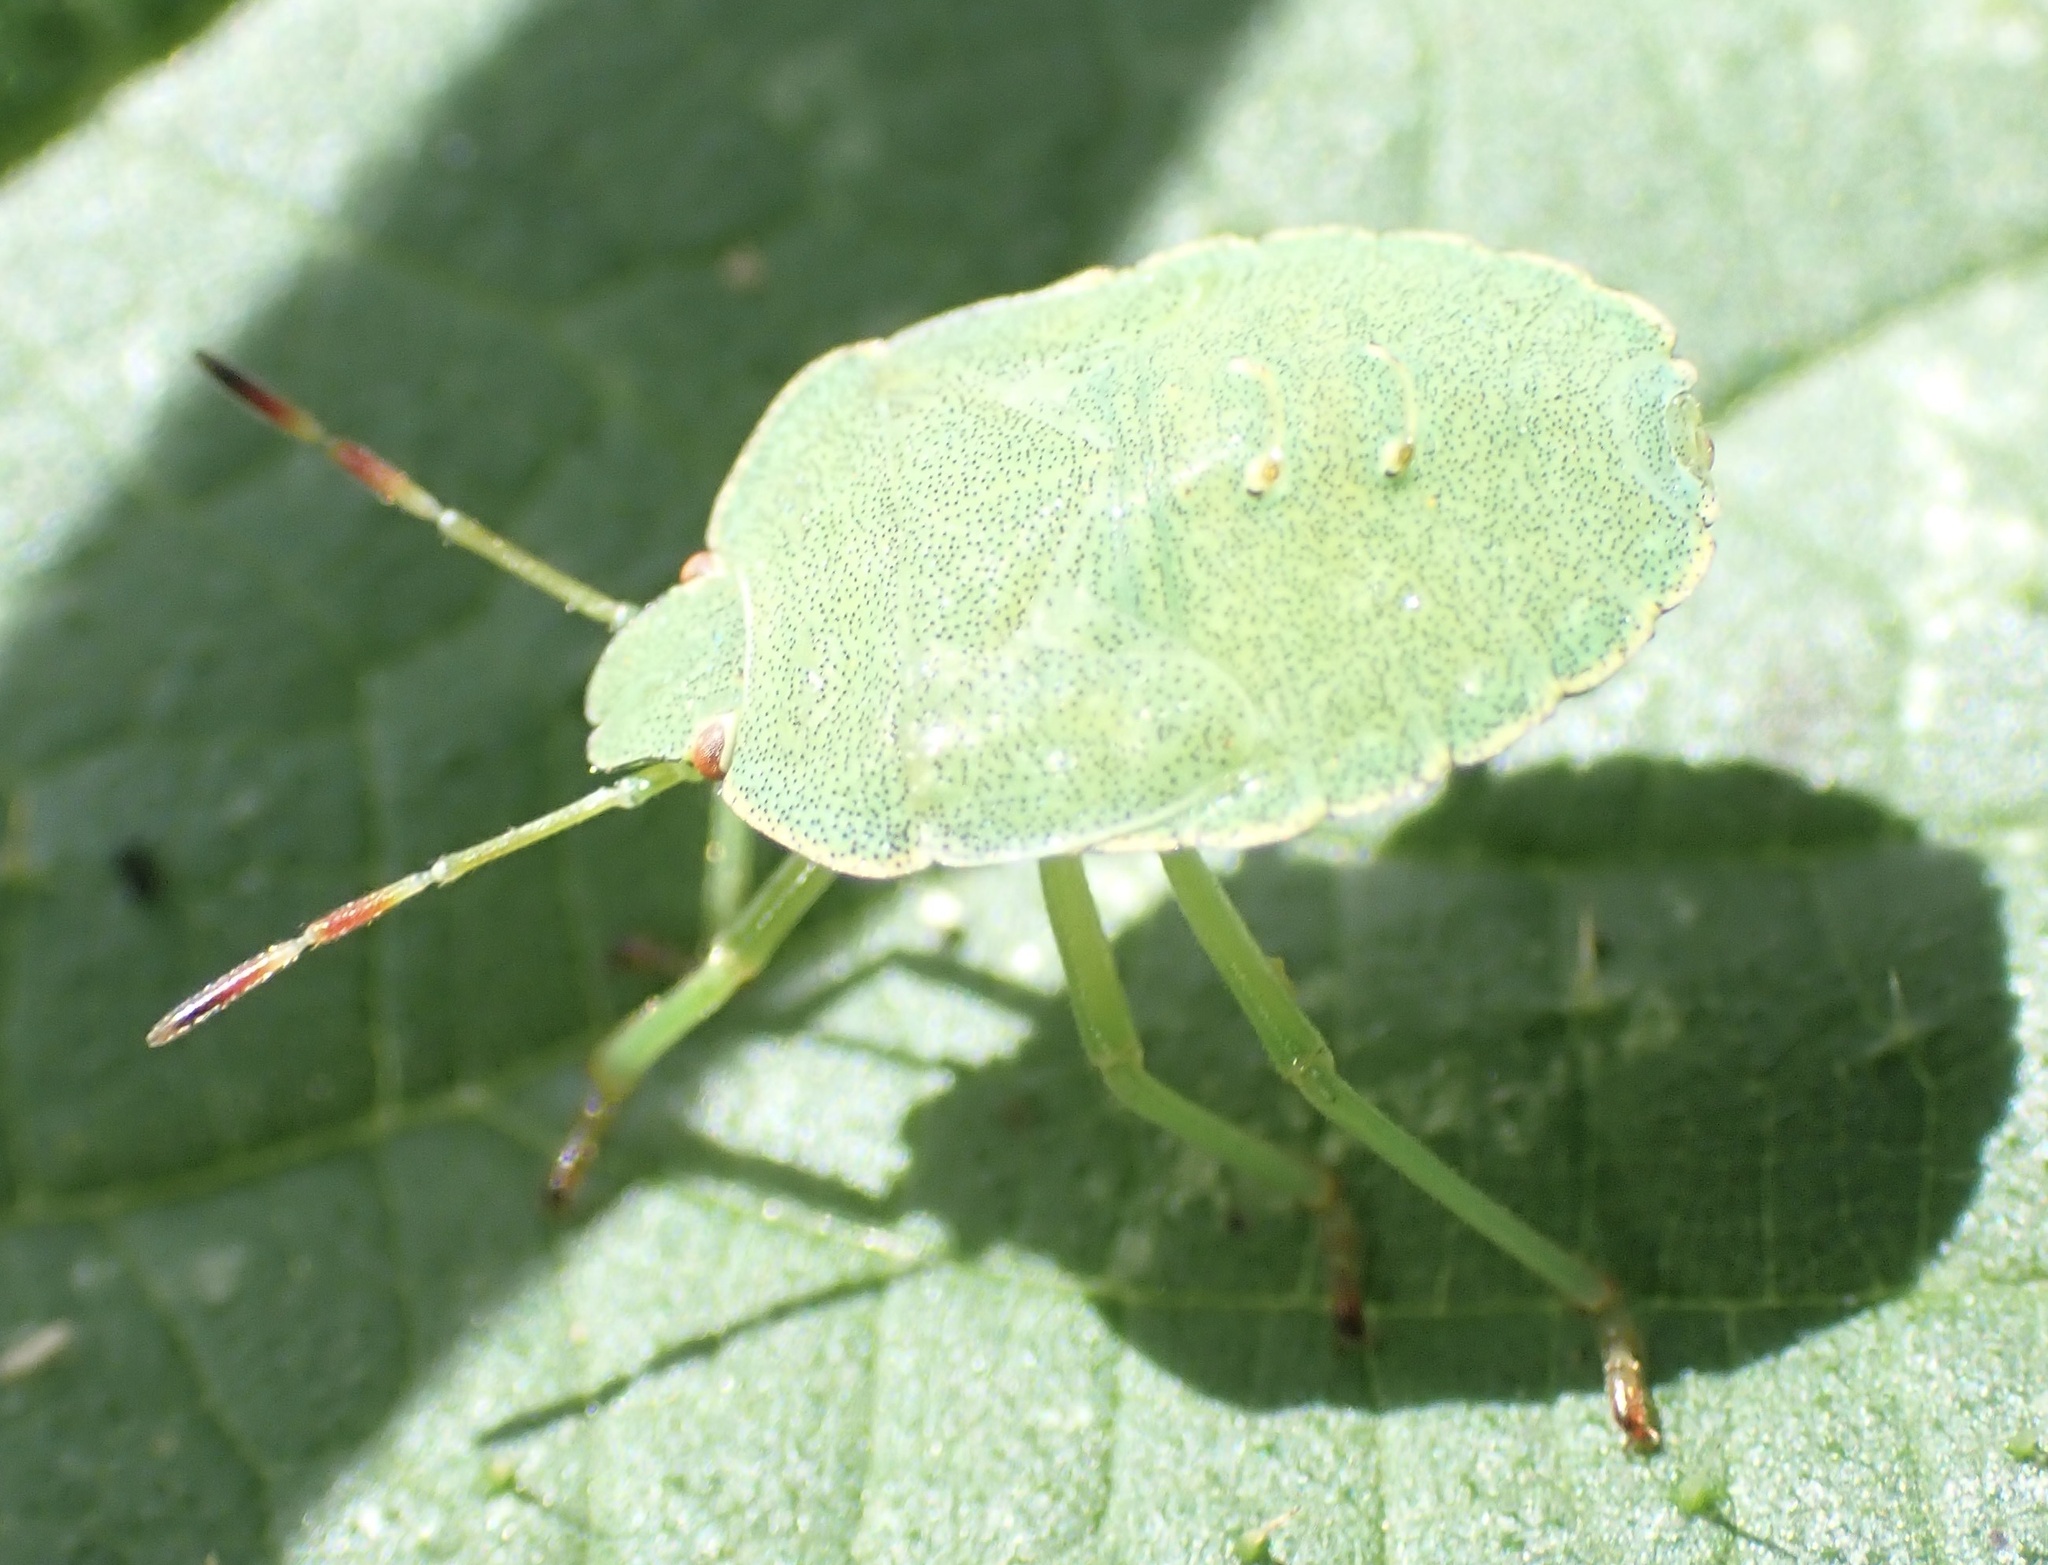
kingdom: Animalia
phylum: Arthropoda
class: Insecta
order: Hemiptera
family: Pentatomidae
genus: Palomena
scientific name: Palomena prasina
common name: Green shieldbug
